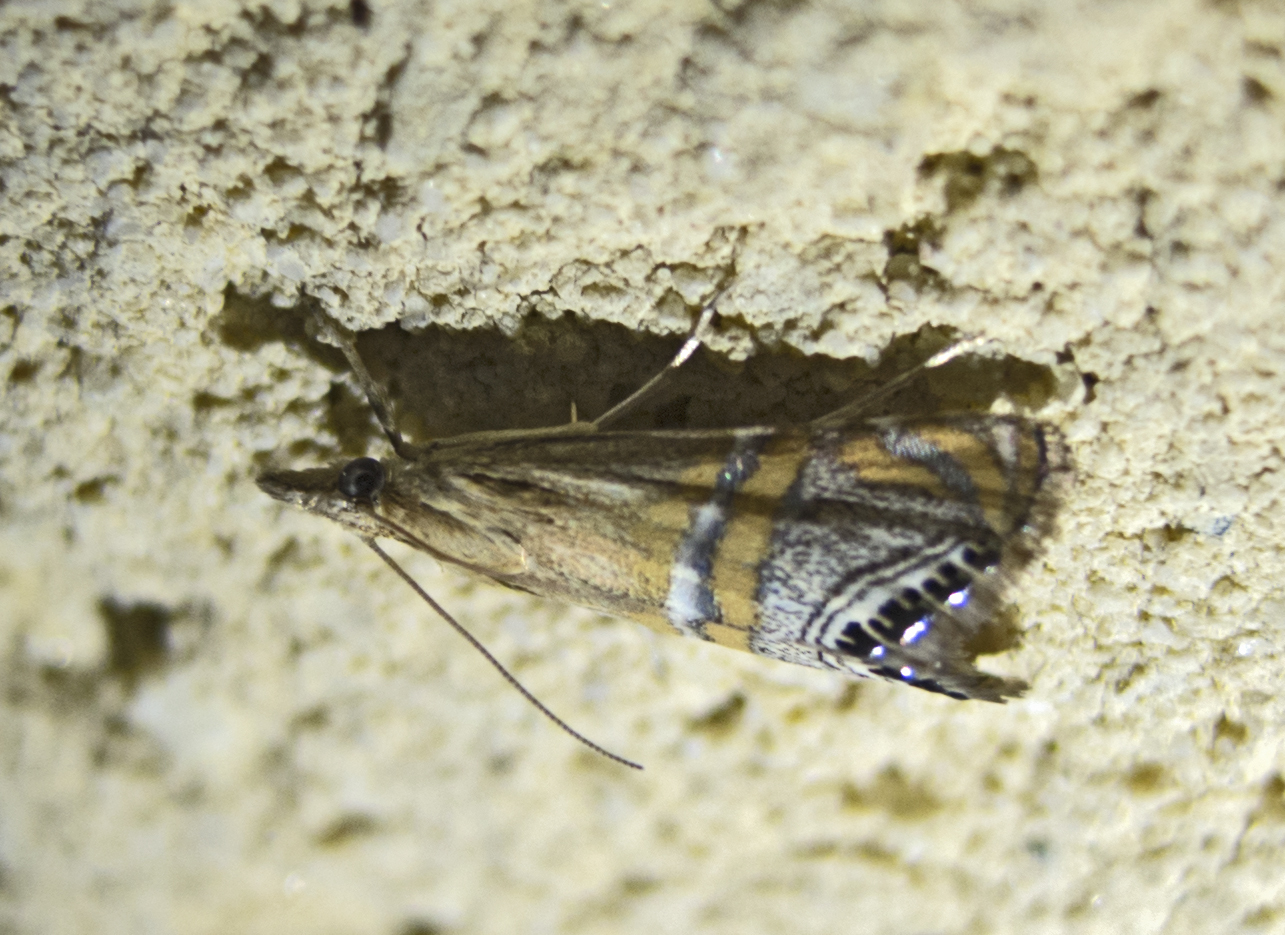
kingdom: Animalia
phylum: Arthropoda
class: Insecta
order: Lepidoptera
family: Crambidae
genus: Euchromius
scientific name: Euchromius bella
